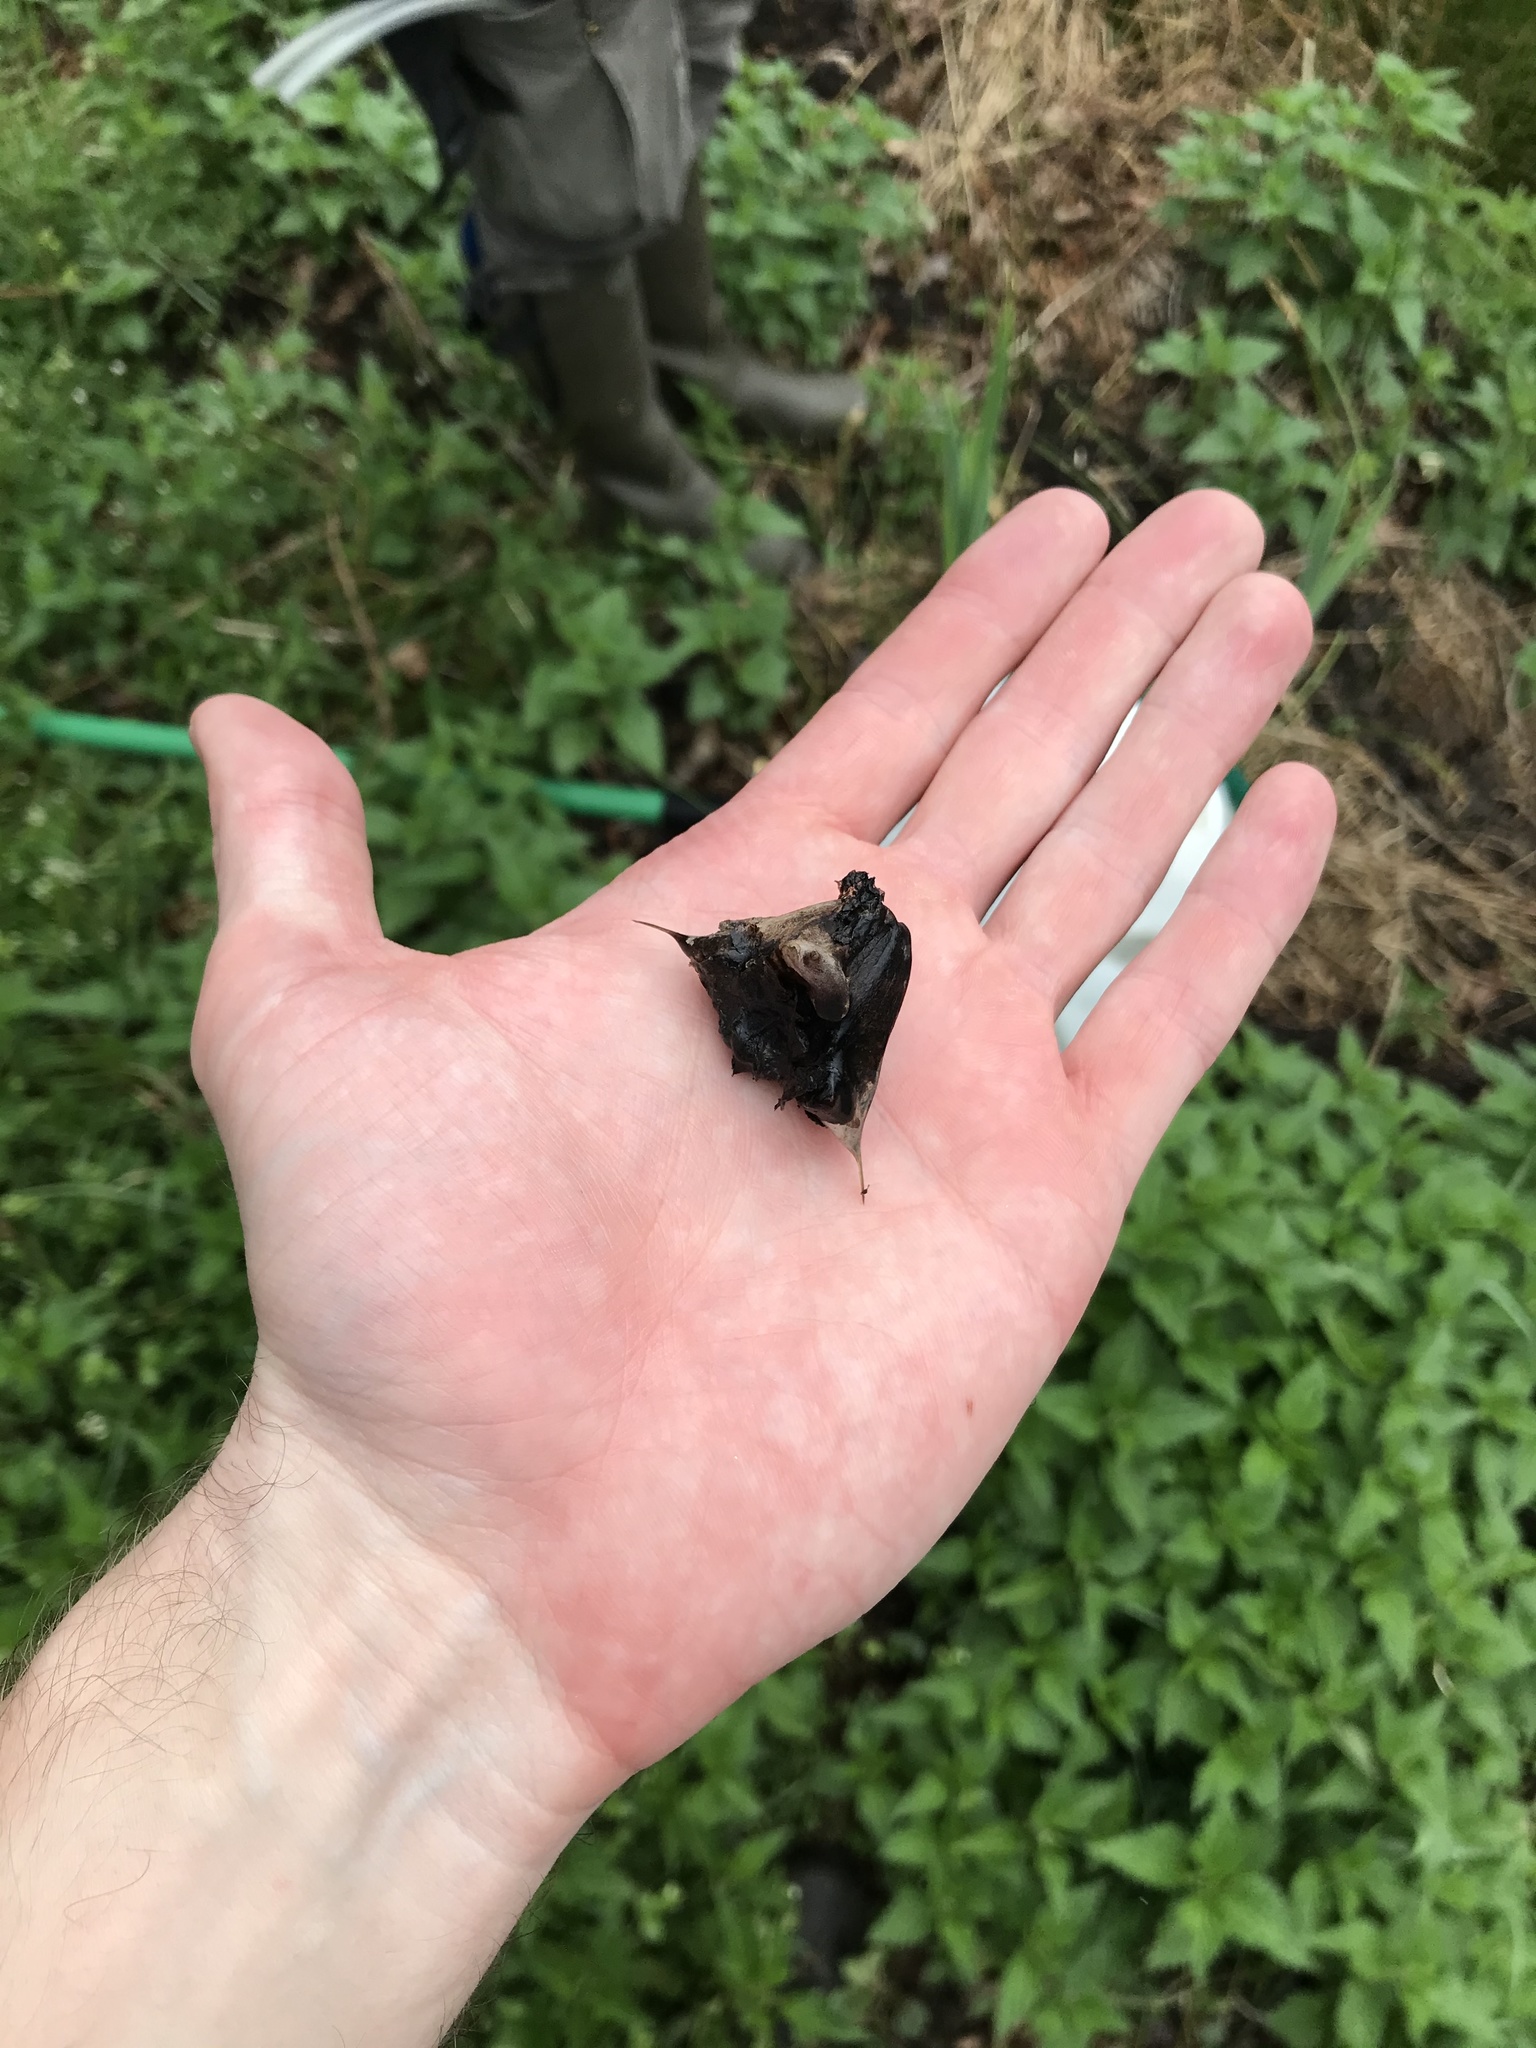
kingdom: Plantae
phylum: Tracheophyta
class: Magnoliopsida
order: Myrtales
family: Lythraceae
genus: Trapa
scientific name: Trapa natans
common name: Water chestnut
